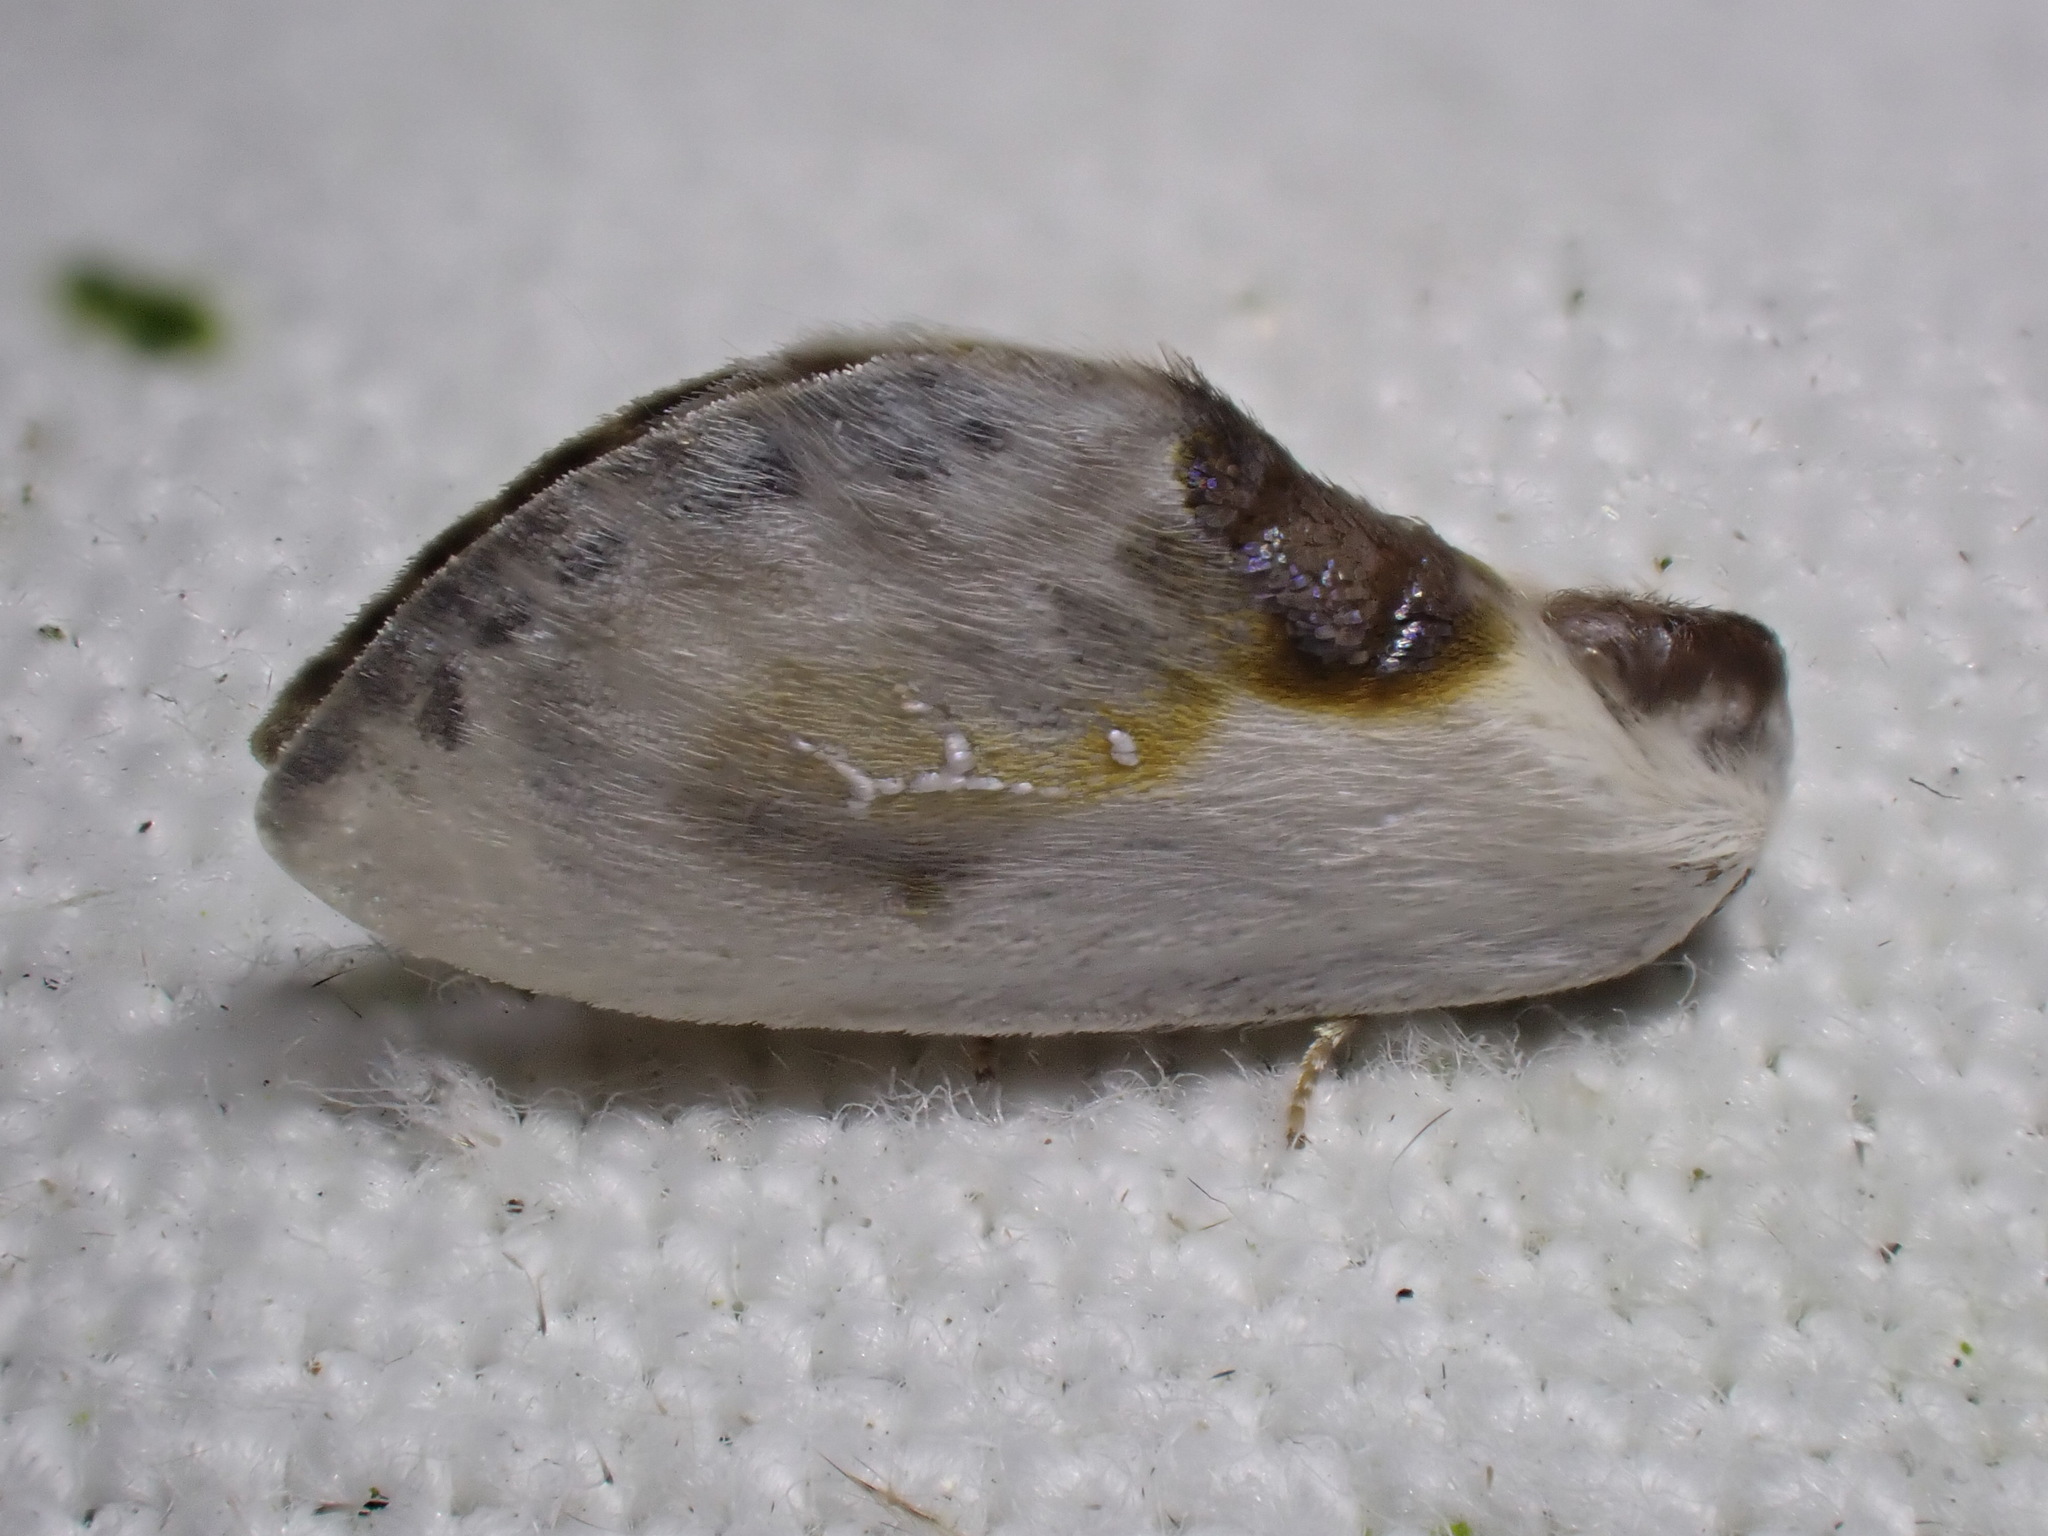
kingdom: Animalia
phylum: Arthropoda
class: Insecta
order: Lepidoptera
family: Drepanidae
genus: Cilix
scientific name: Cilix glaucata
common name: Chinese character
